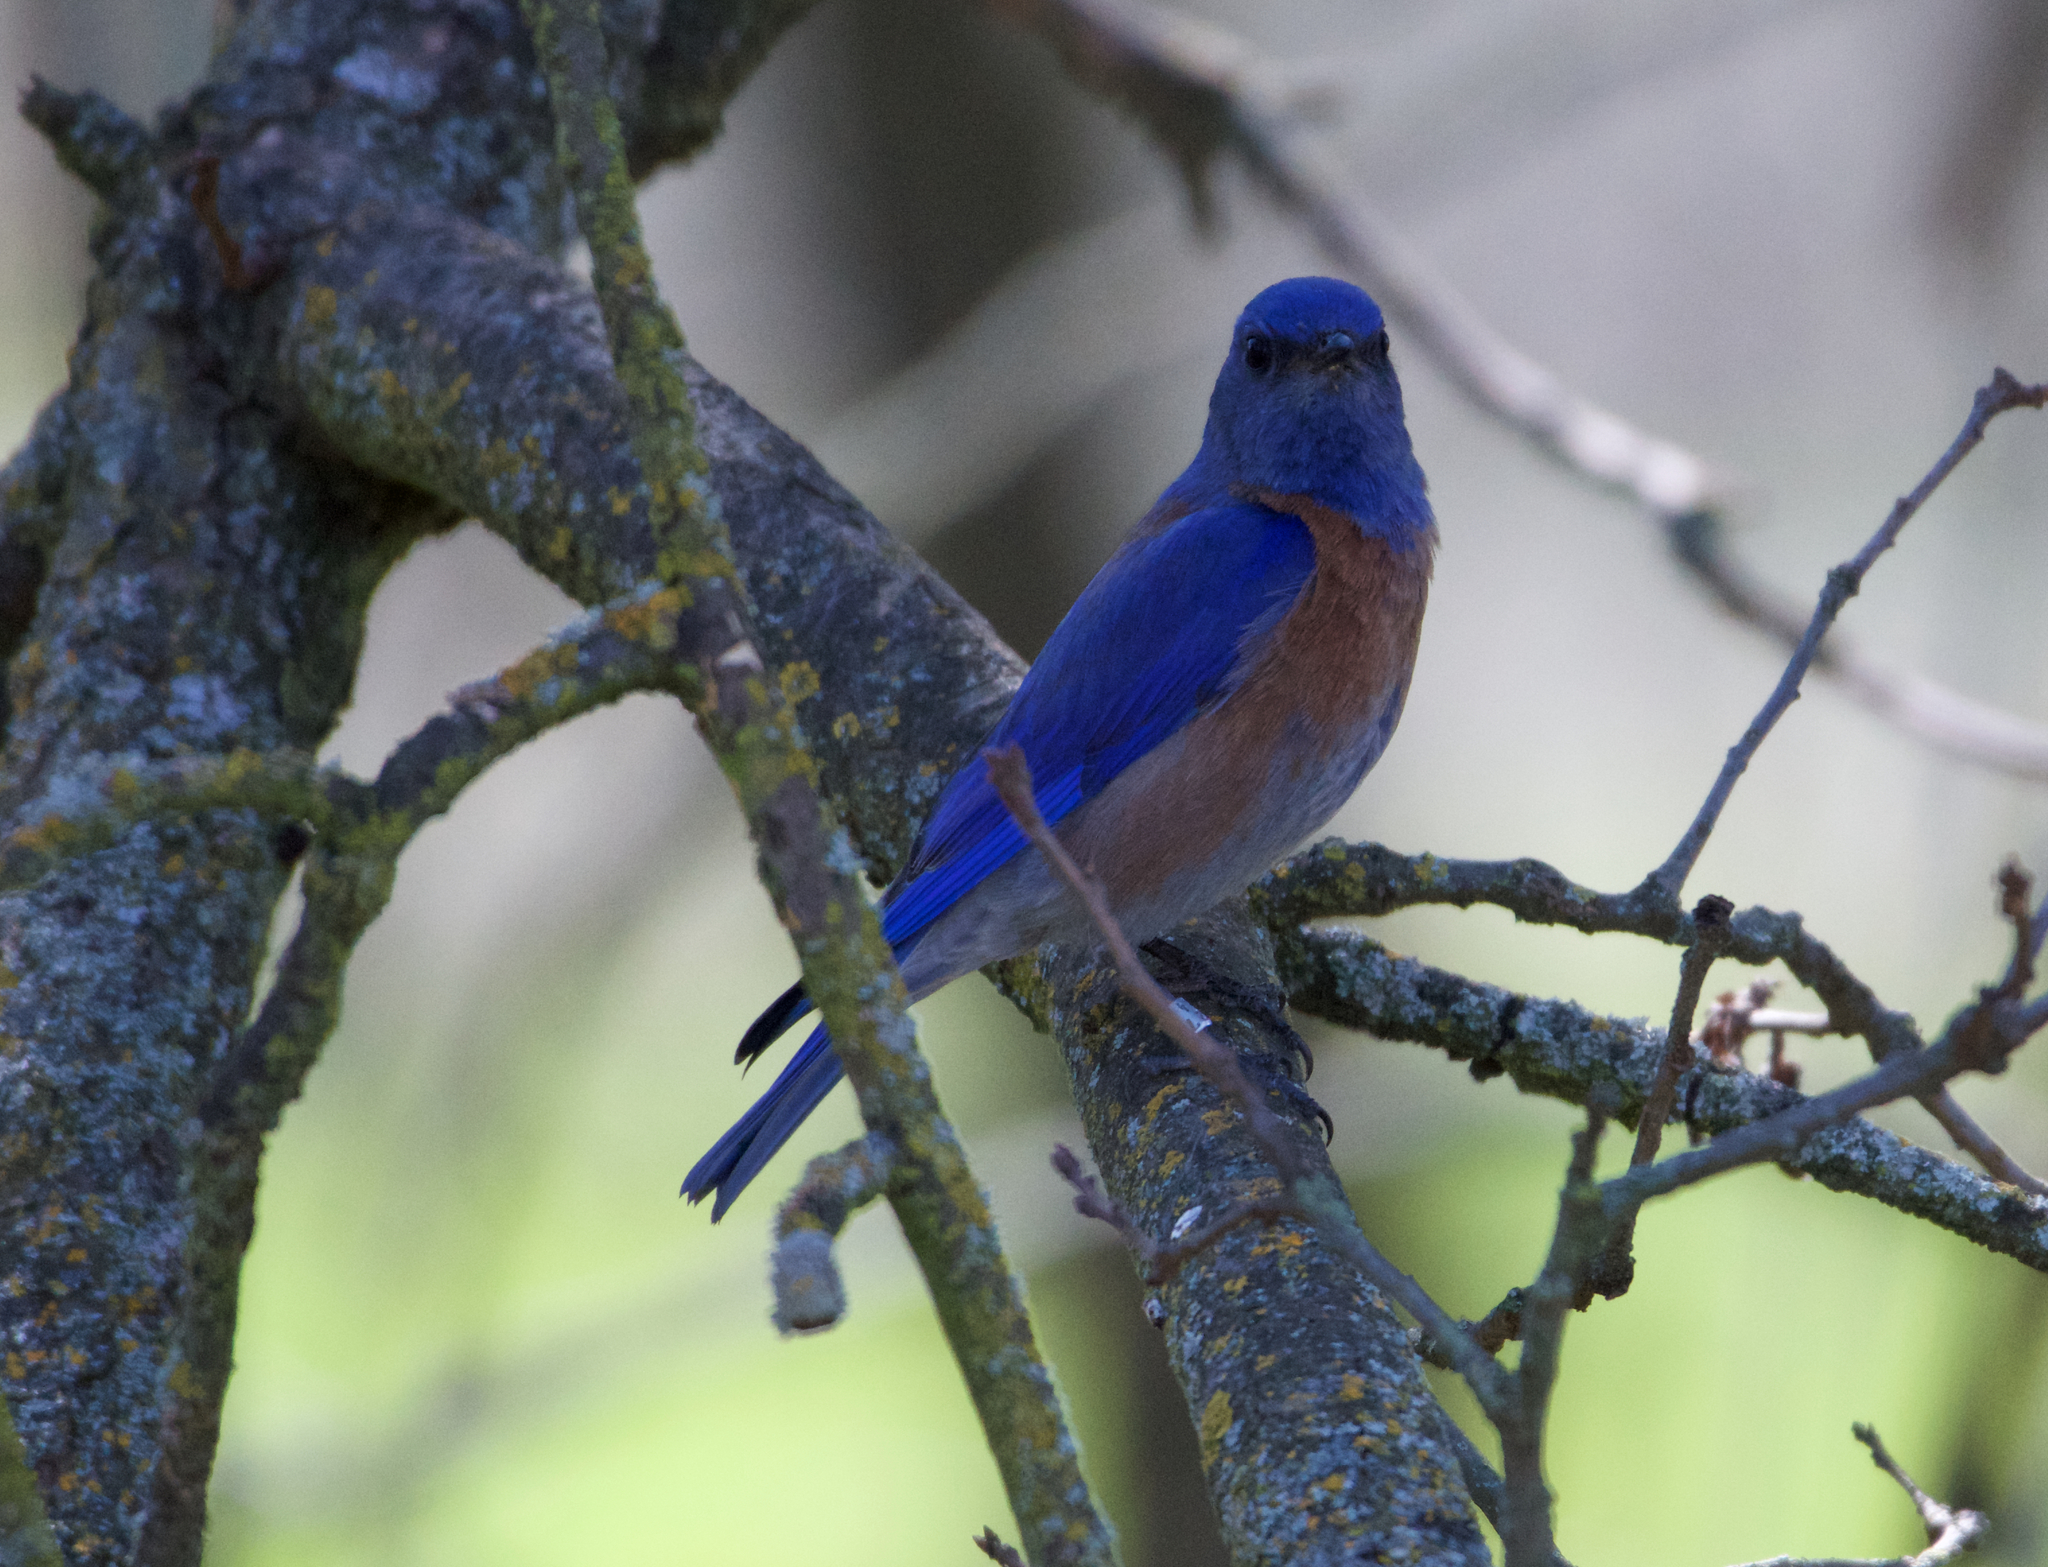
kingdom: Animalia
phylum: Chordata
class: Aves
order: Passeriformes
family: Turdidae
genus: Sialia
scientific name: Sialia mexicana
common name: Western bluebird
